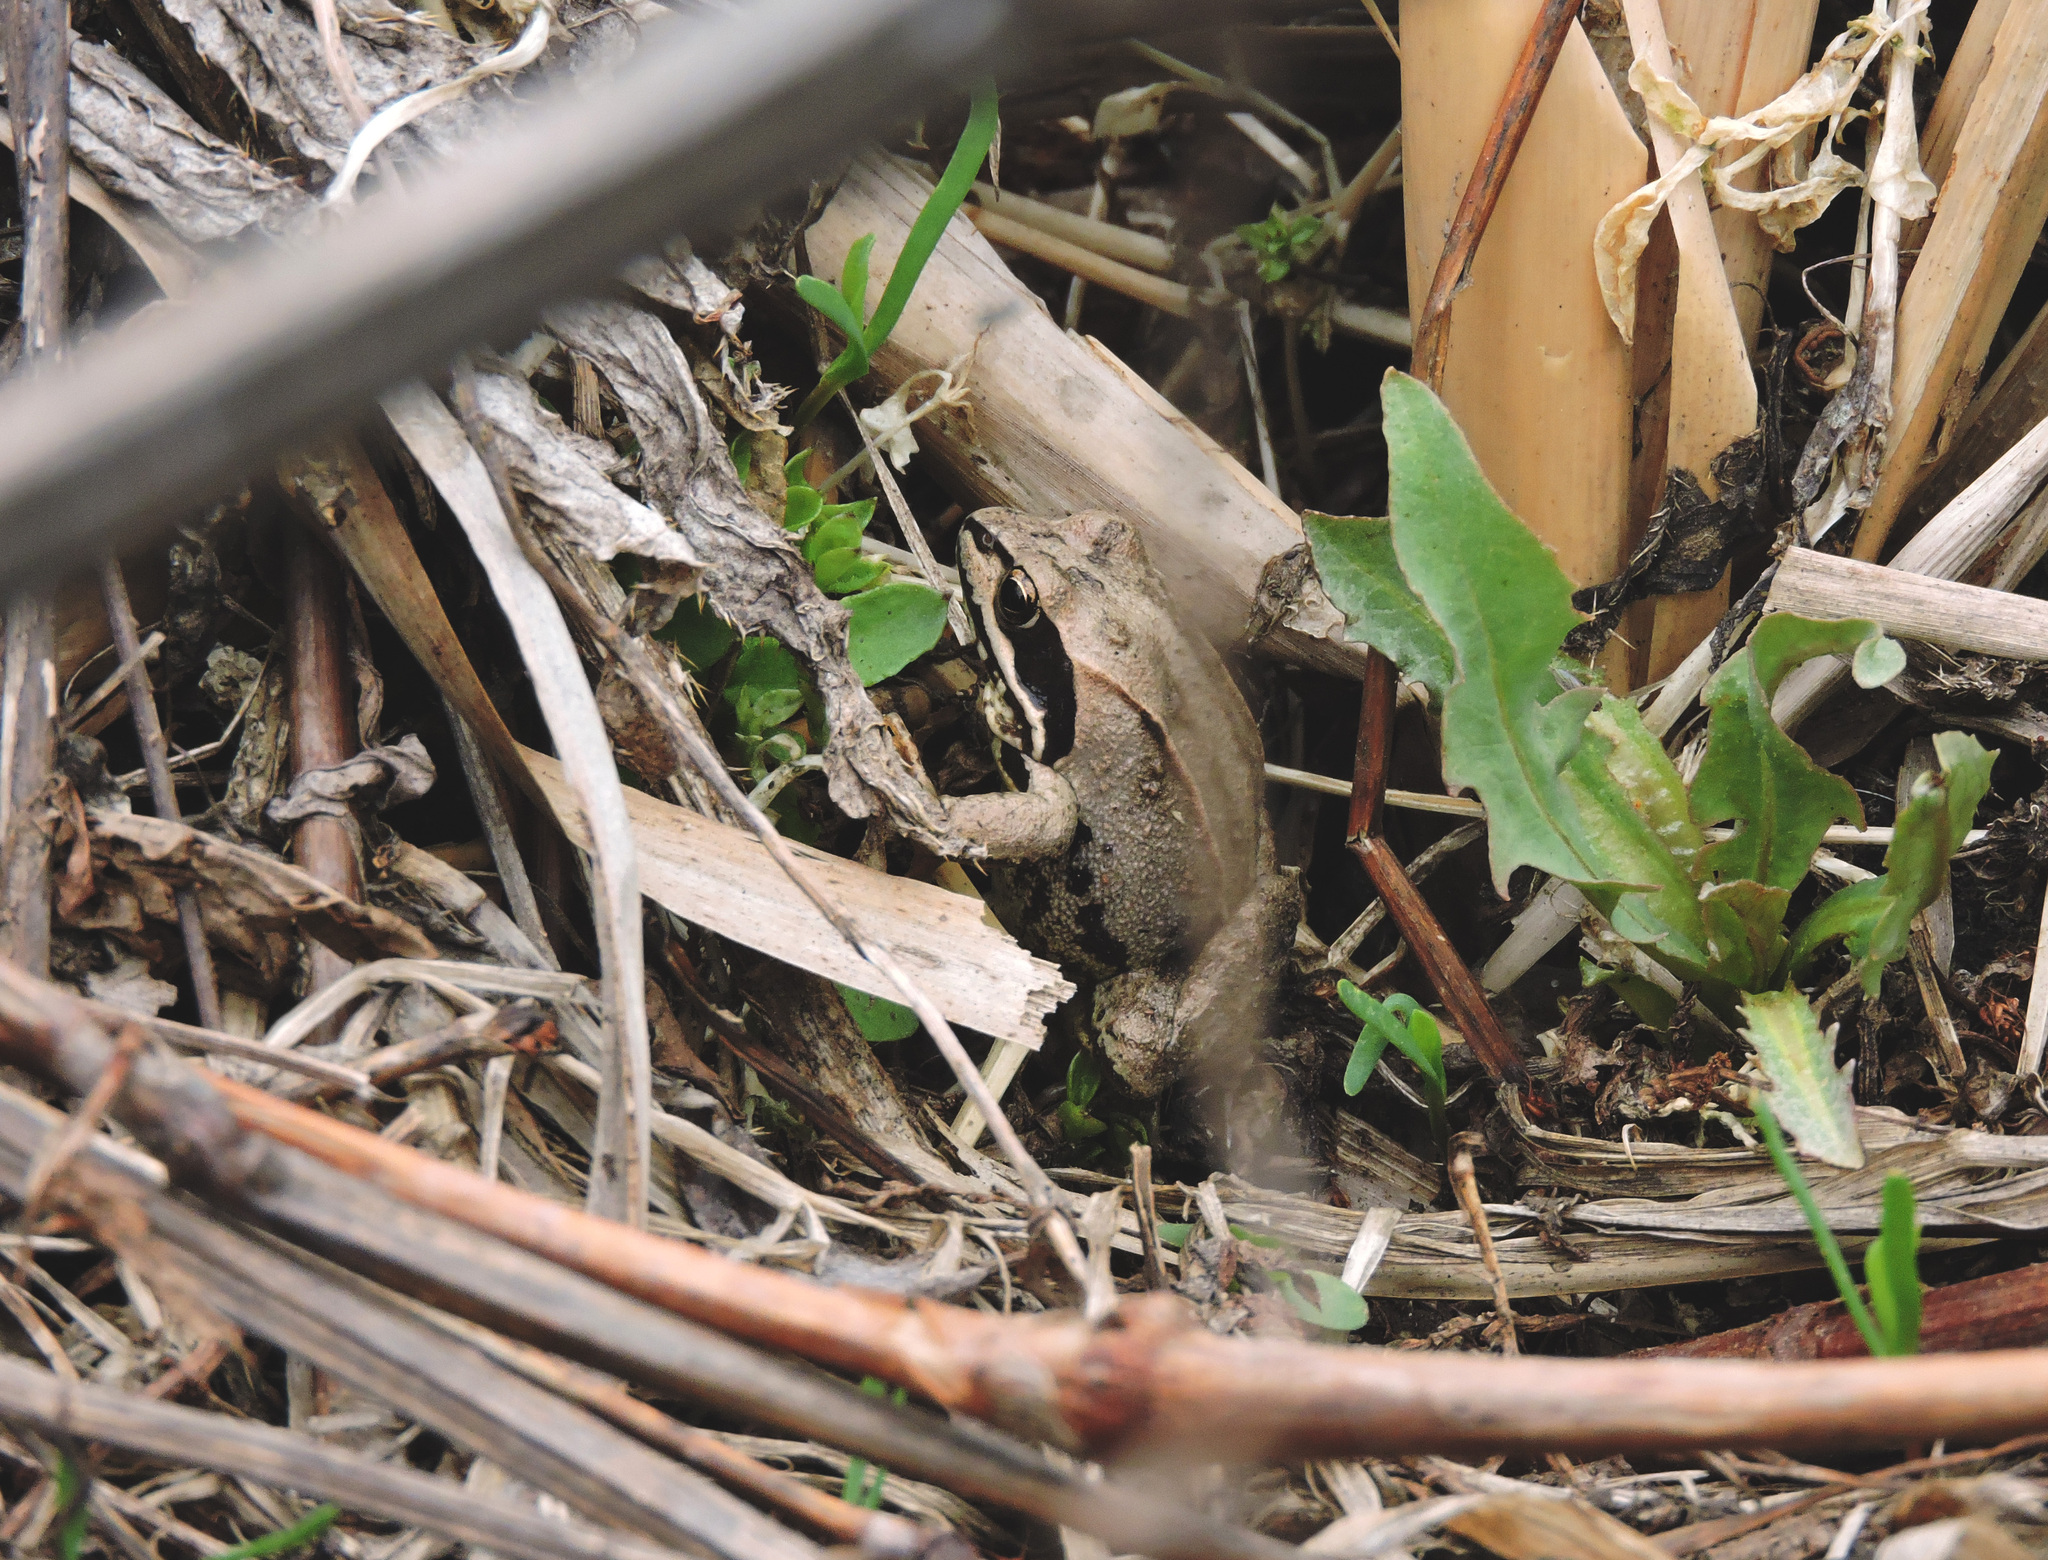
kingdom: Animalia
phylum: Chordata
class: Amphibia
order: Anura
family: Ranidae
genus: Rana
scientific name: Rana arvalis
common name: Moor frog
